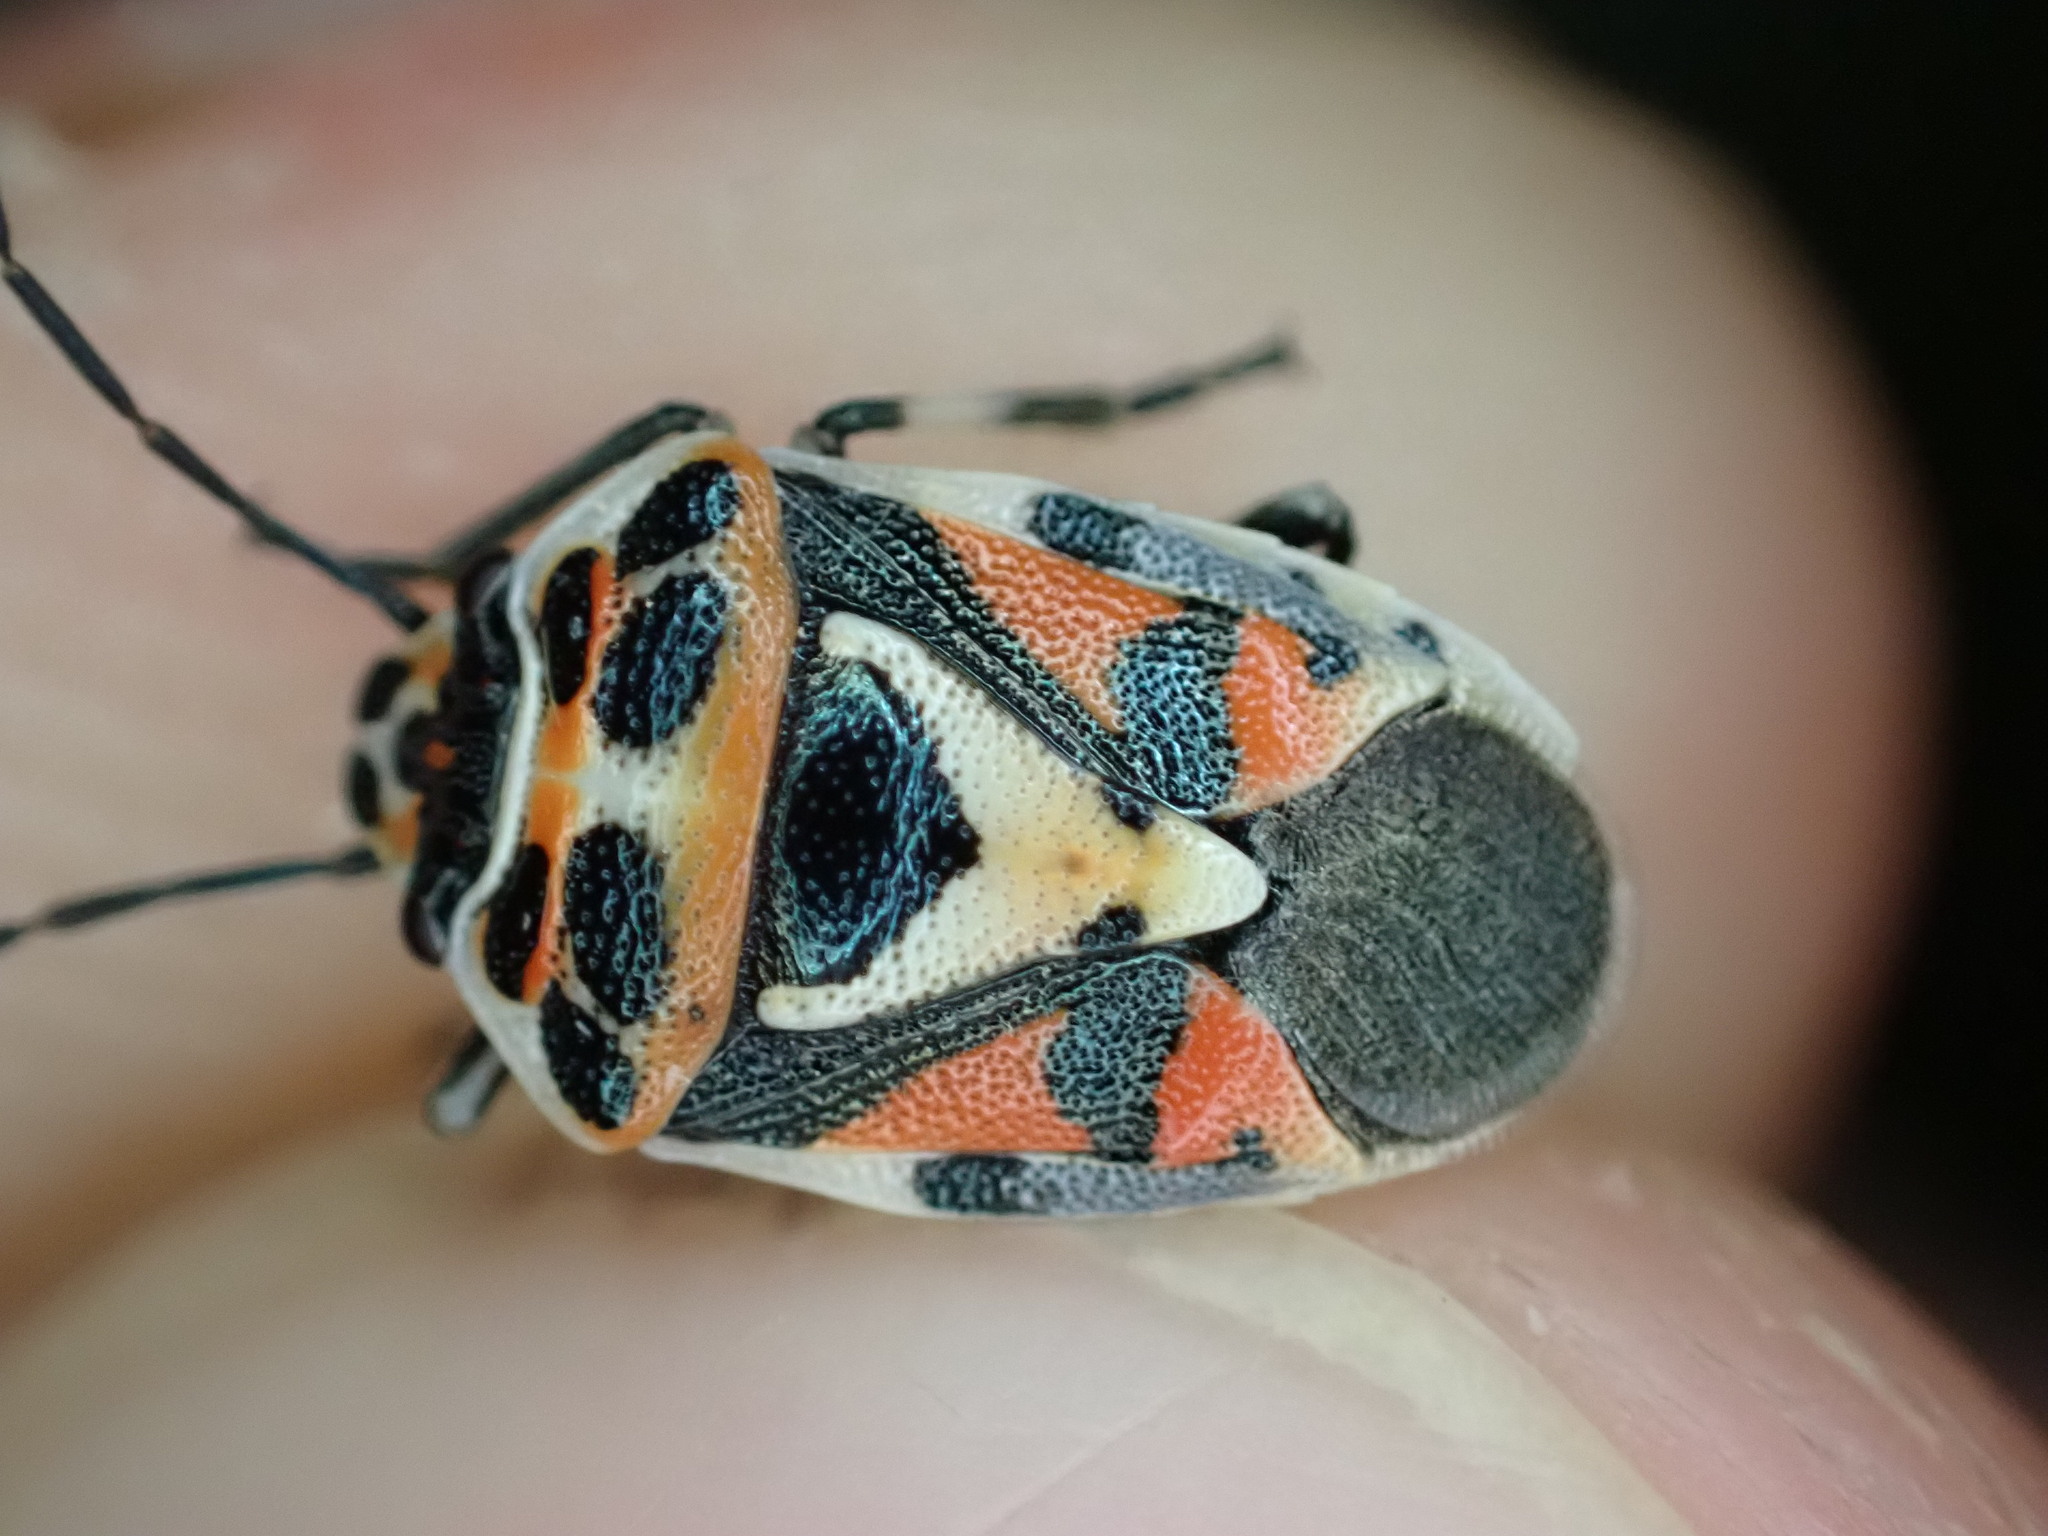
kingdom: Animalia
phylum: Arthropoda
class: Insecta
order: Hemiptera
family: Pentatomidae
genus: Eurydema
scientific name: Eurydema ornata
